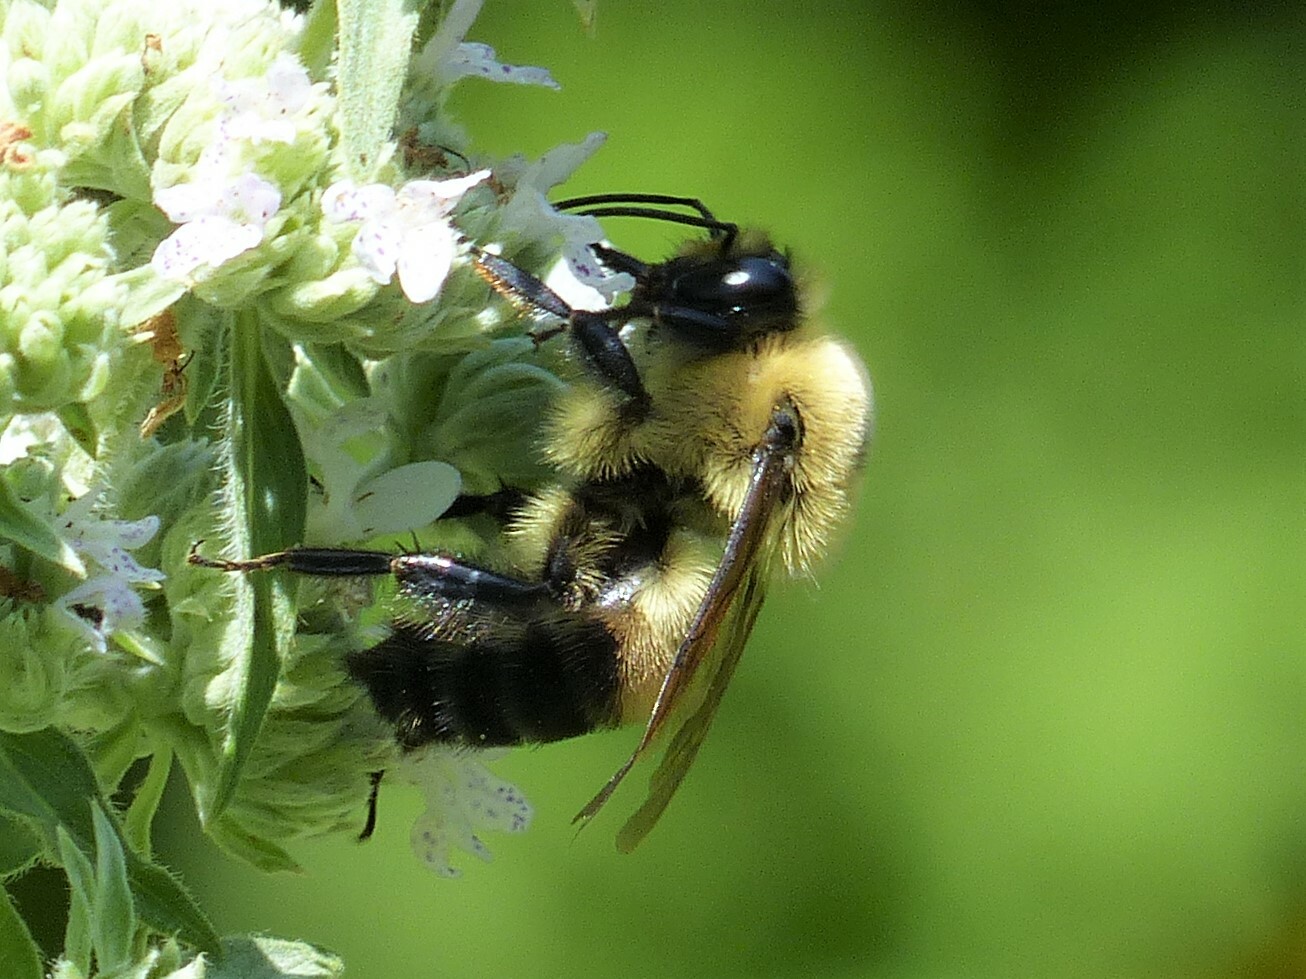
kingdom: Animalia
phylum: Arthropoda
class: Insecta
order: Hymenoptera
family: Apidae
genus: Bombus
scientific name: Bombus griseocollis
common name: Brown-belted bumble bee
